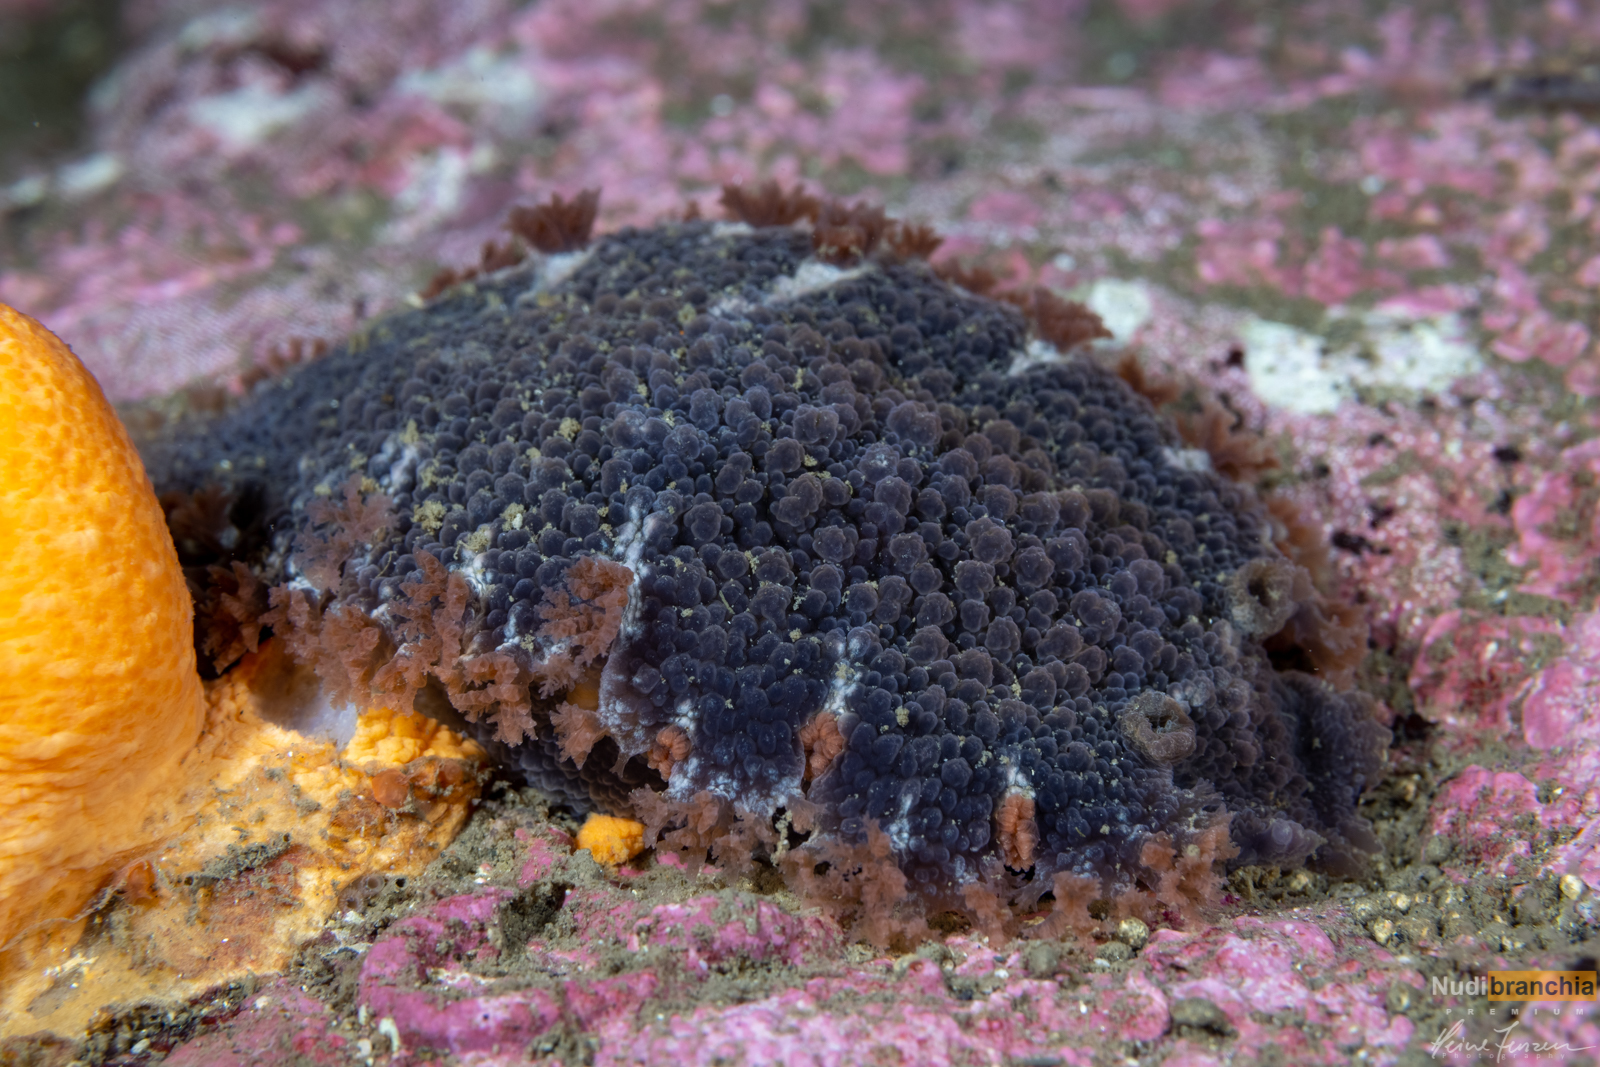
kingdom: Animalia
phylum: Mollusca
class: Gastropoda
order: Nudibranchia
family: Tritoniidae
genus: Tritonia
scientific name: Tritonia hombergii
